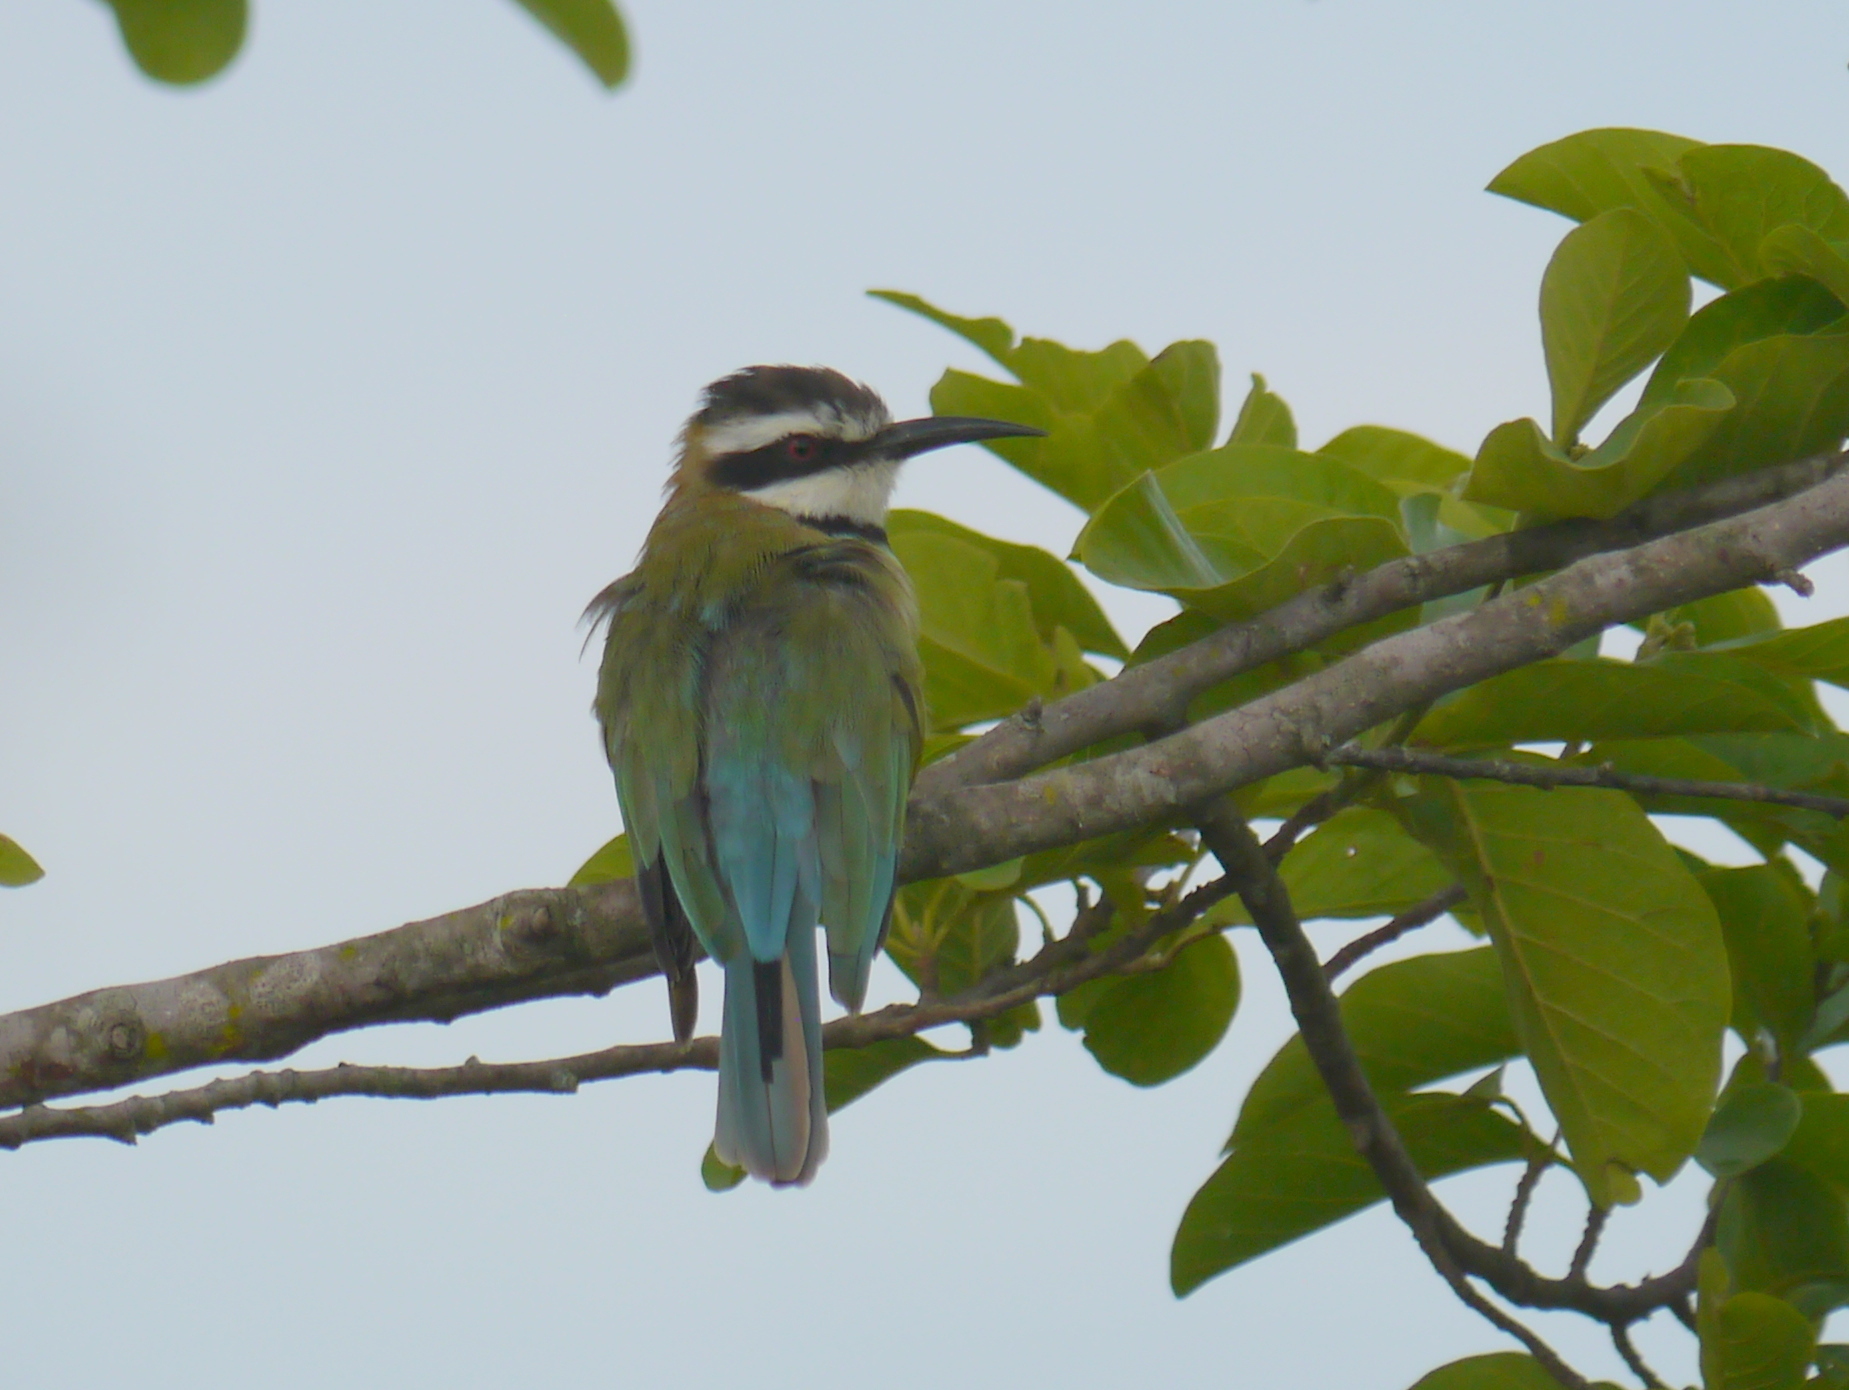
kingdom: Animalia
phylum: Chordata
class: Aves
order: Coraciiformes
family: Meropidae
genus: Merops
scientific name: Merops albicollis
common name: White-throated bee-eater
